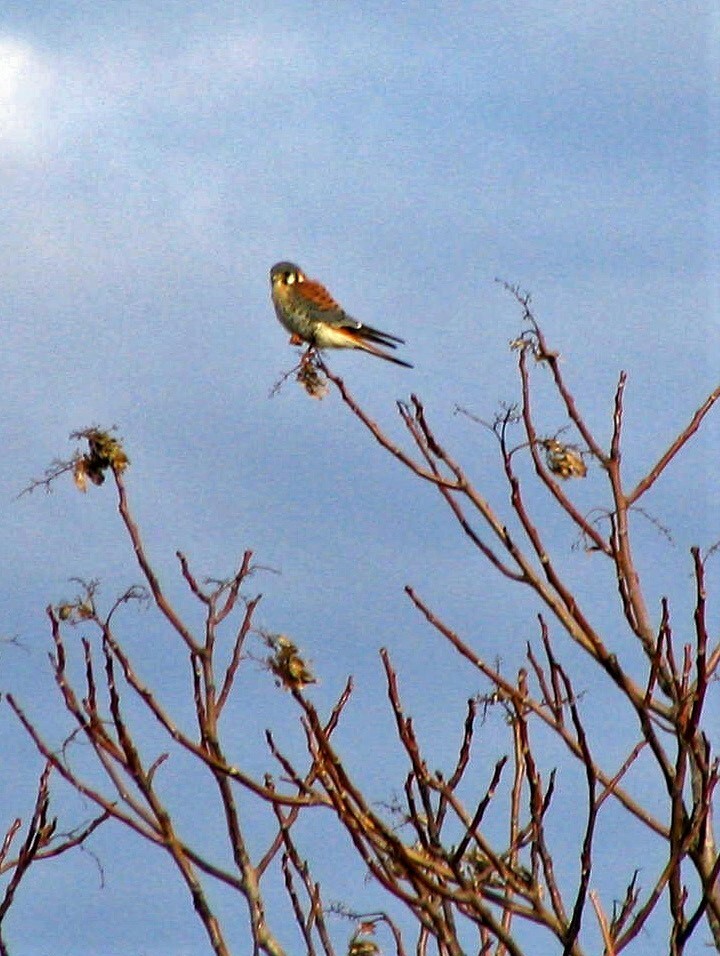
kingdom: Animalia
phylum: Chordata
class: Aves
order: Falconiformes
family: Falconidae
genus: Falco
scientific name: Falco sparverius
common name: American kestrel
